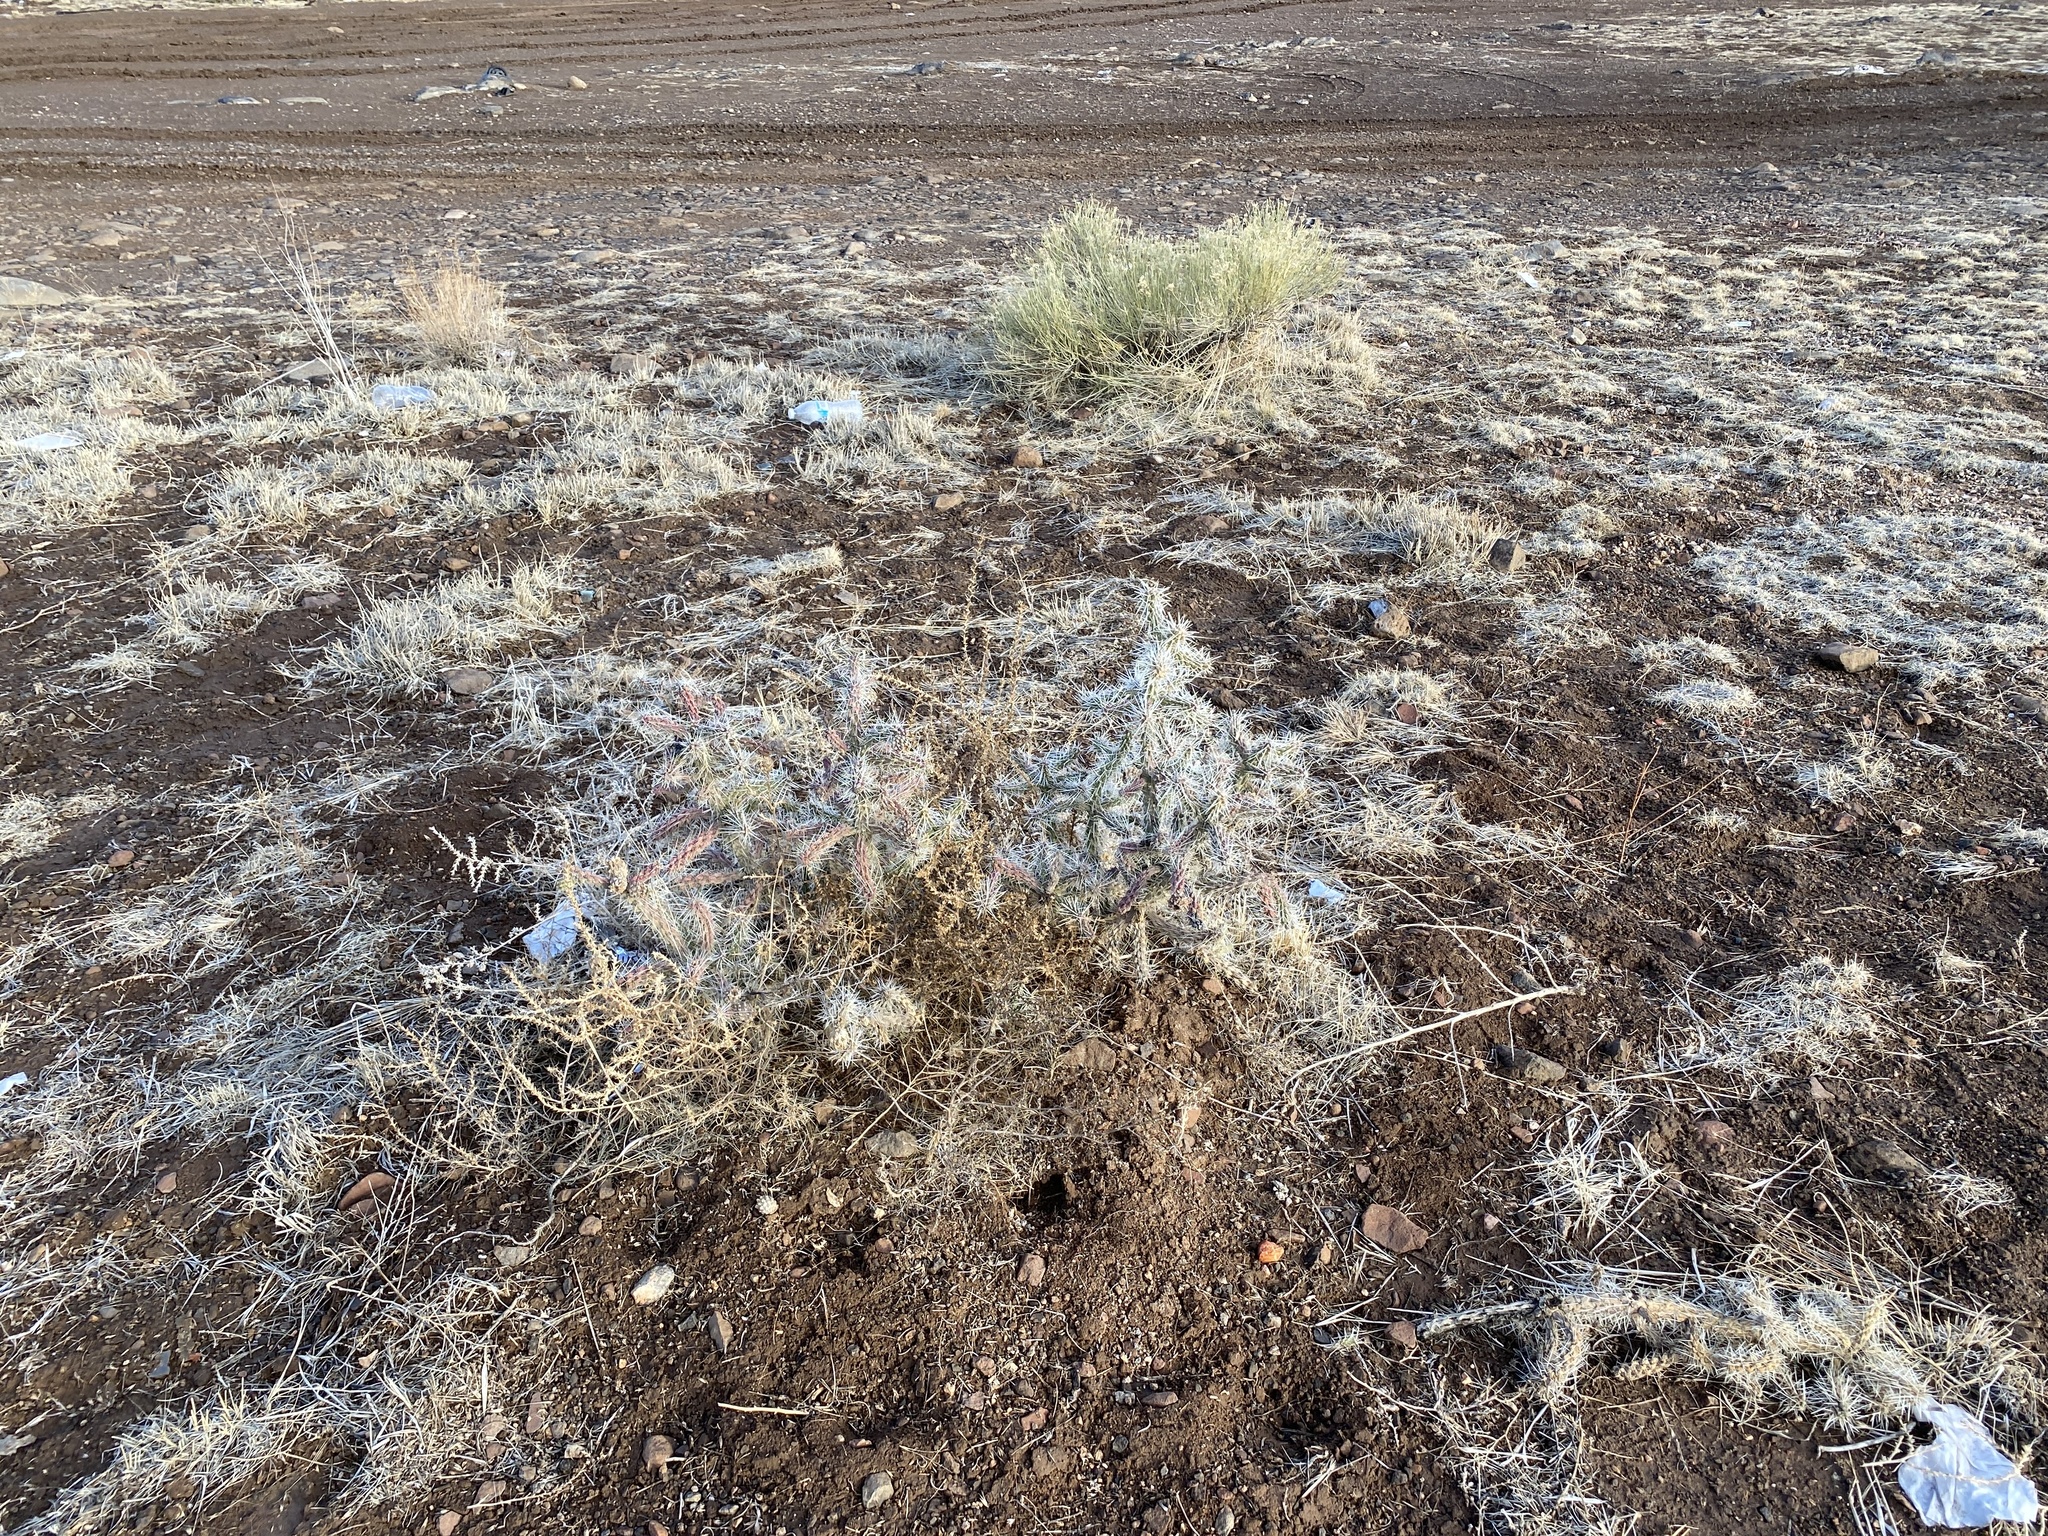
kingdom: Plantae
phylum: Tracheophyta
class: Magnoliopsida
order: Caryophyllales
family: Cactaceae
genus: Cylindropuntia
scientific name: Cylindropuntia whipplei
